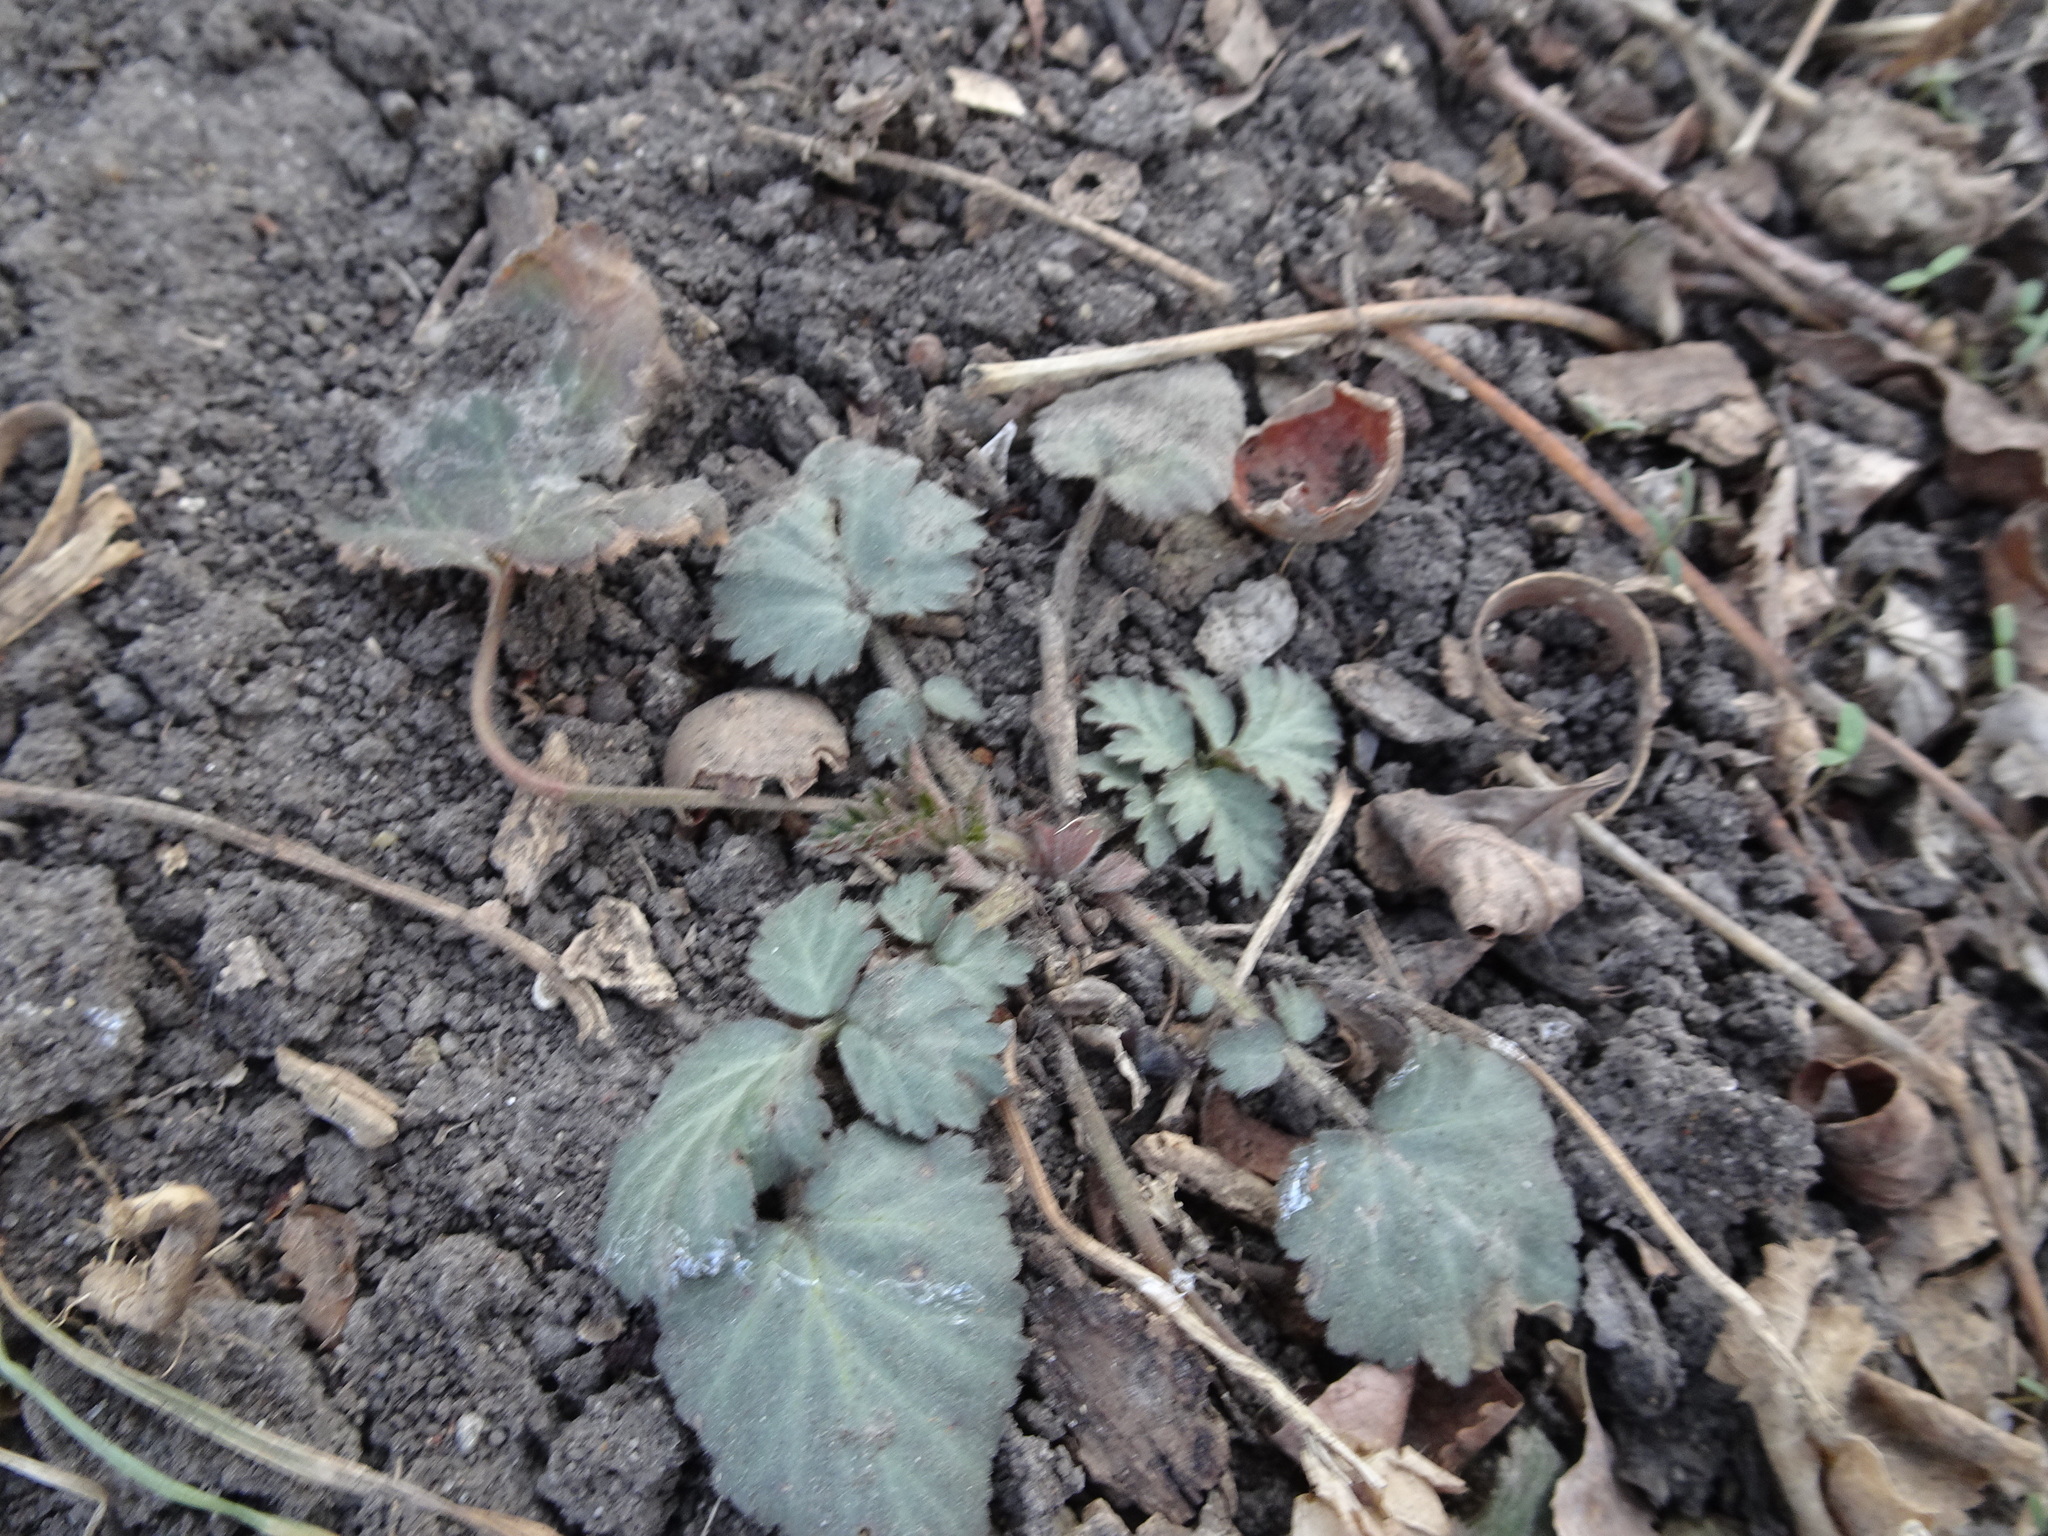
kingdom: Plantae
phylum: Tracheophyta
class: Magnoliopsida
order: Rosales
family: Rosaceae
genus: Geum
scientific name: Geum canadense
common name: White avens
